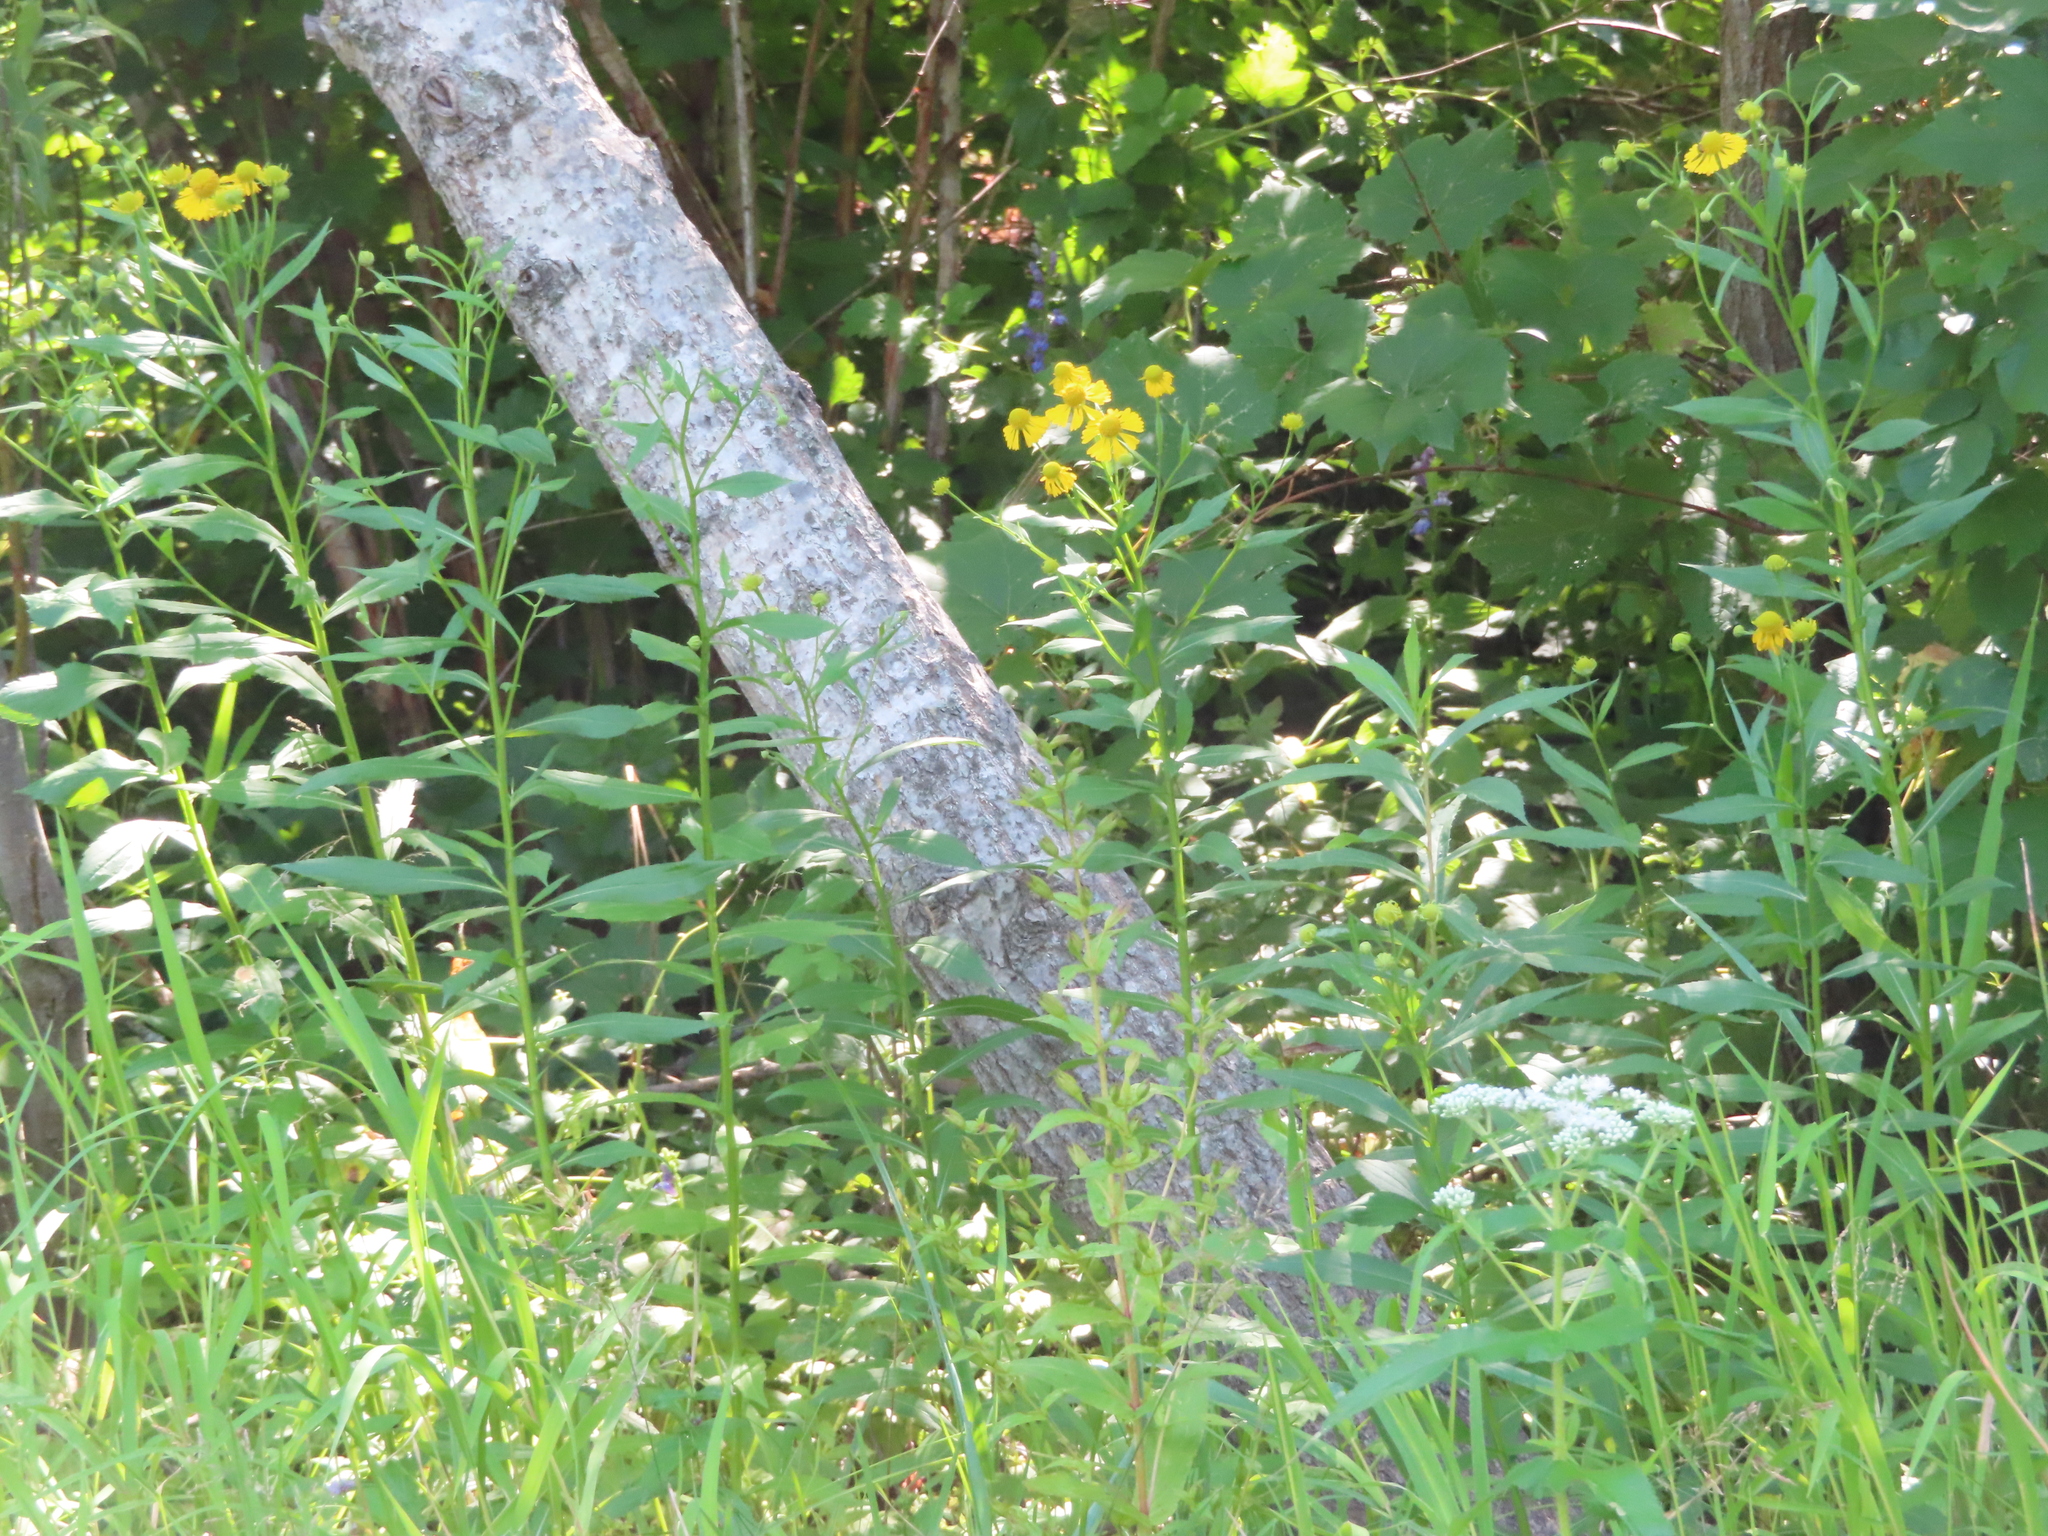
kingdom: Plantae
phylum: Tracheophyta
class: Magnoliopsida
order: Asterales
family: Asteraceae
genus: Helenium
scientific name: Helenium autumnale
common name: Sneezeweed
